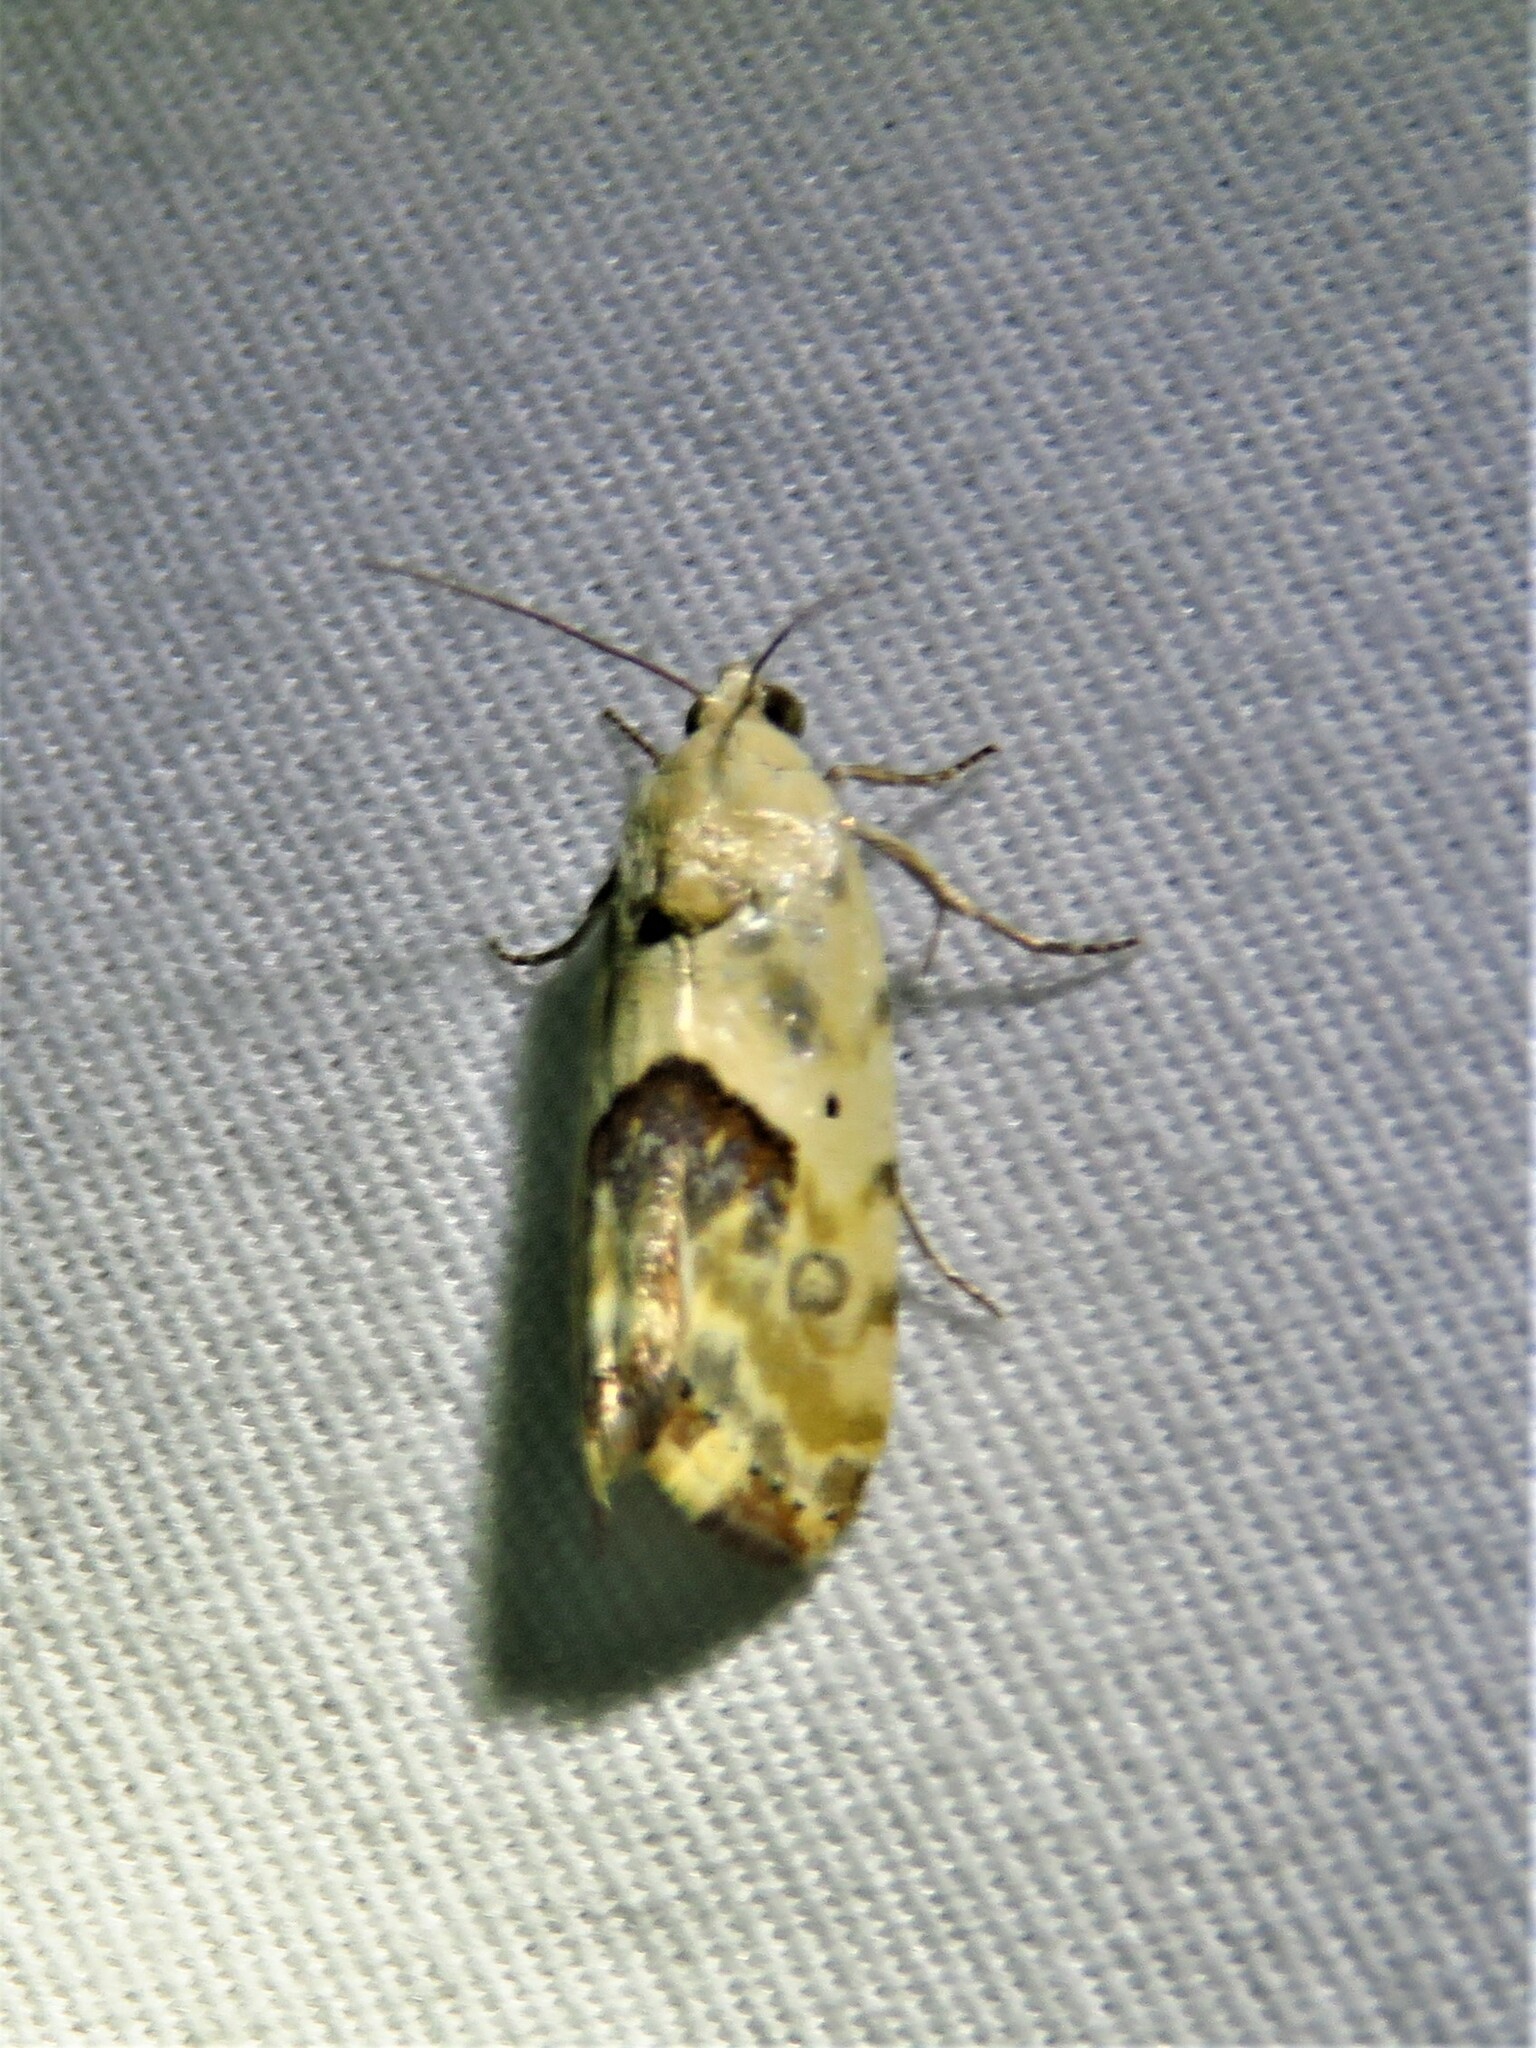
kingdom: Animalia
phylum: Arthropoda
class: Insecta
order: Lepidoptera
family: Noctuidae
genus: Acontia
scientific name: Acontia libedis
